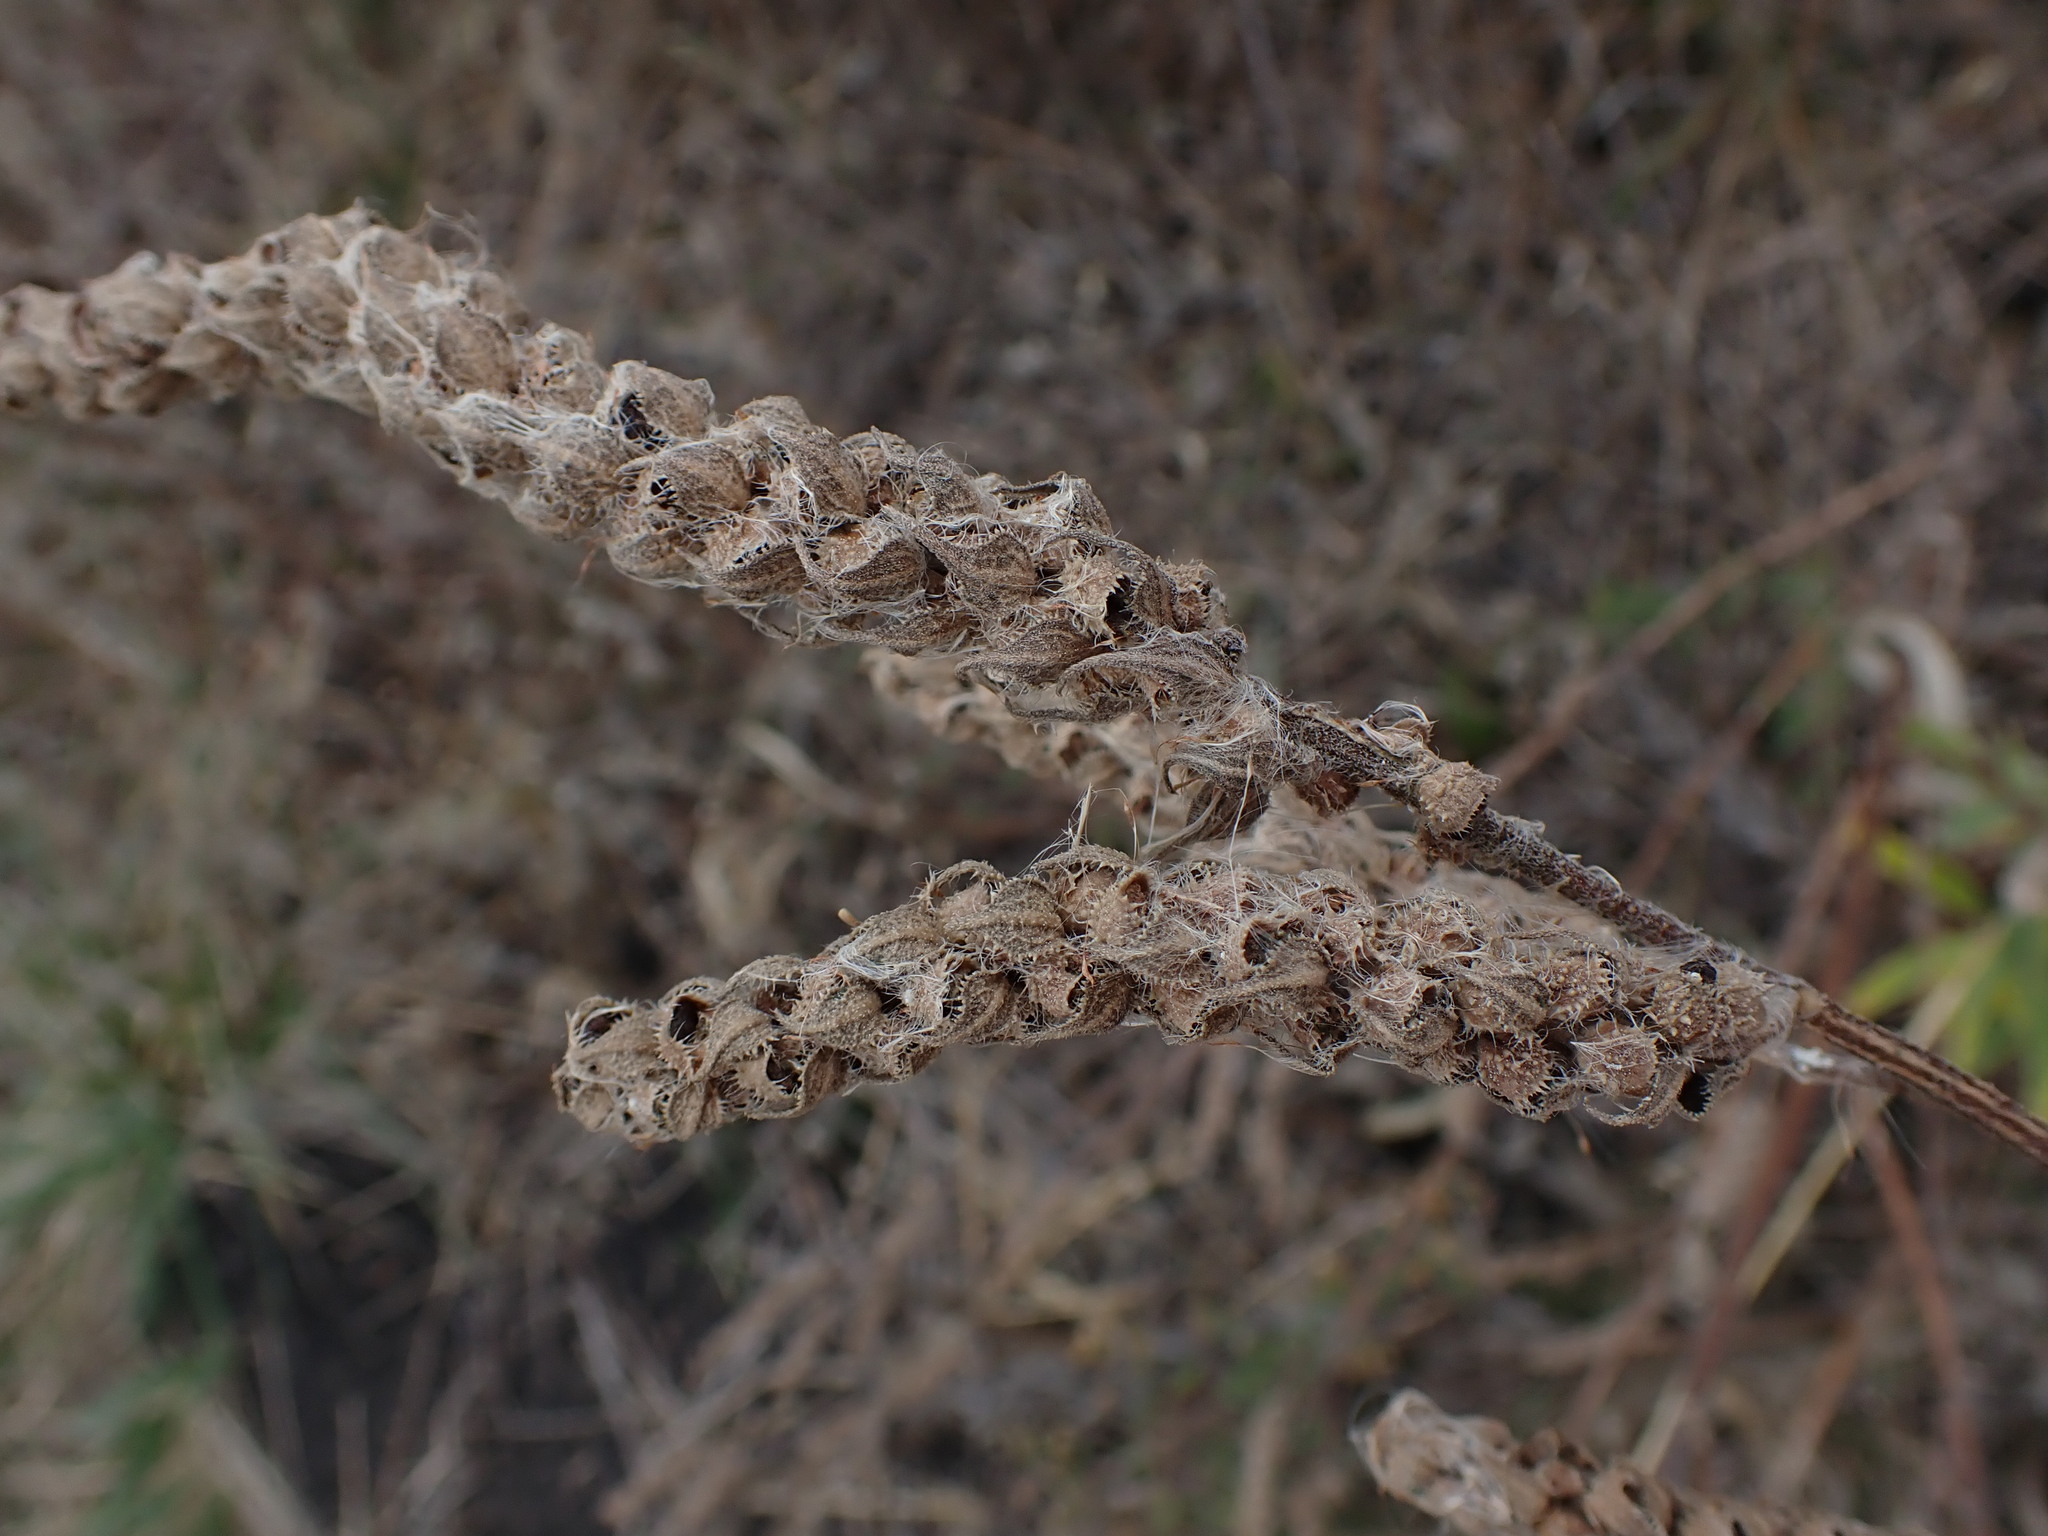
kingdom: Plantae
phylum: Tracheophyta
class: Magnoliopsida
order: Asterales
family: Asteraceae
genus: Iva
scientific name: Iva annua
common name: Marsh-elder
